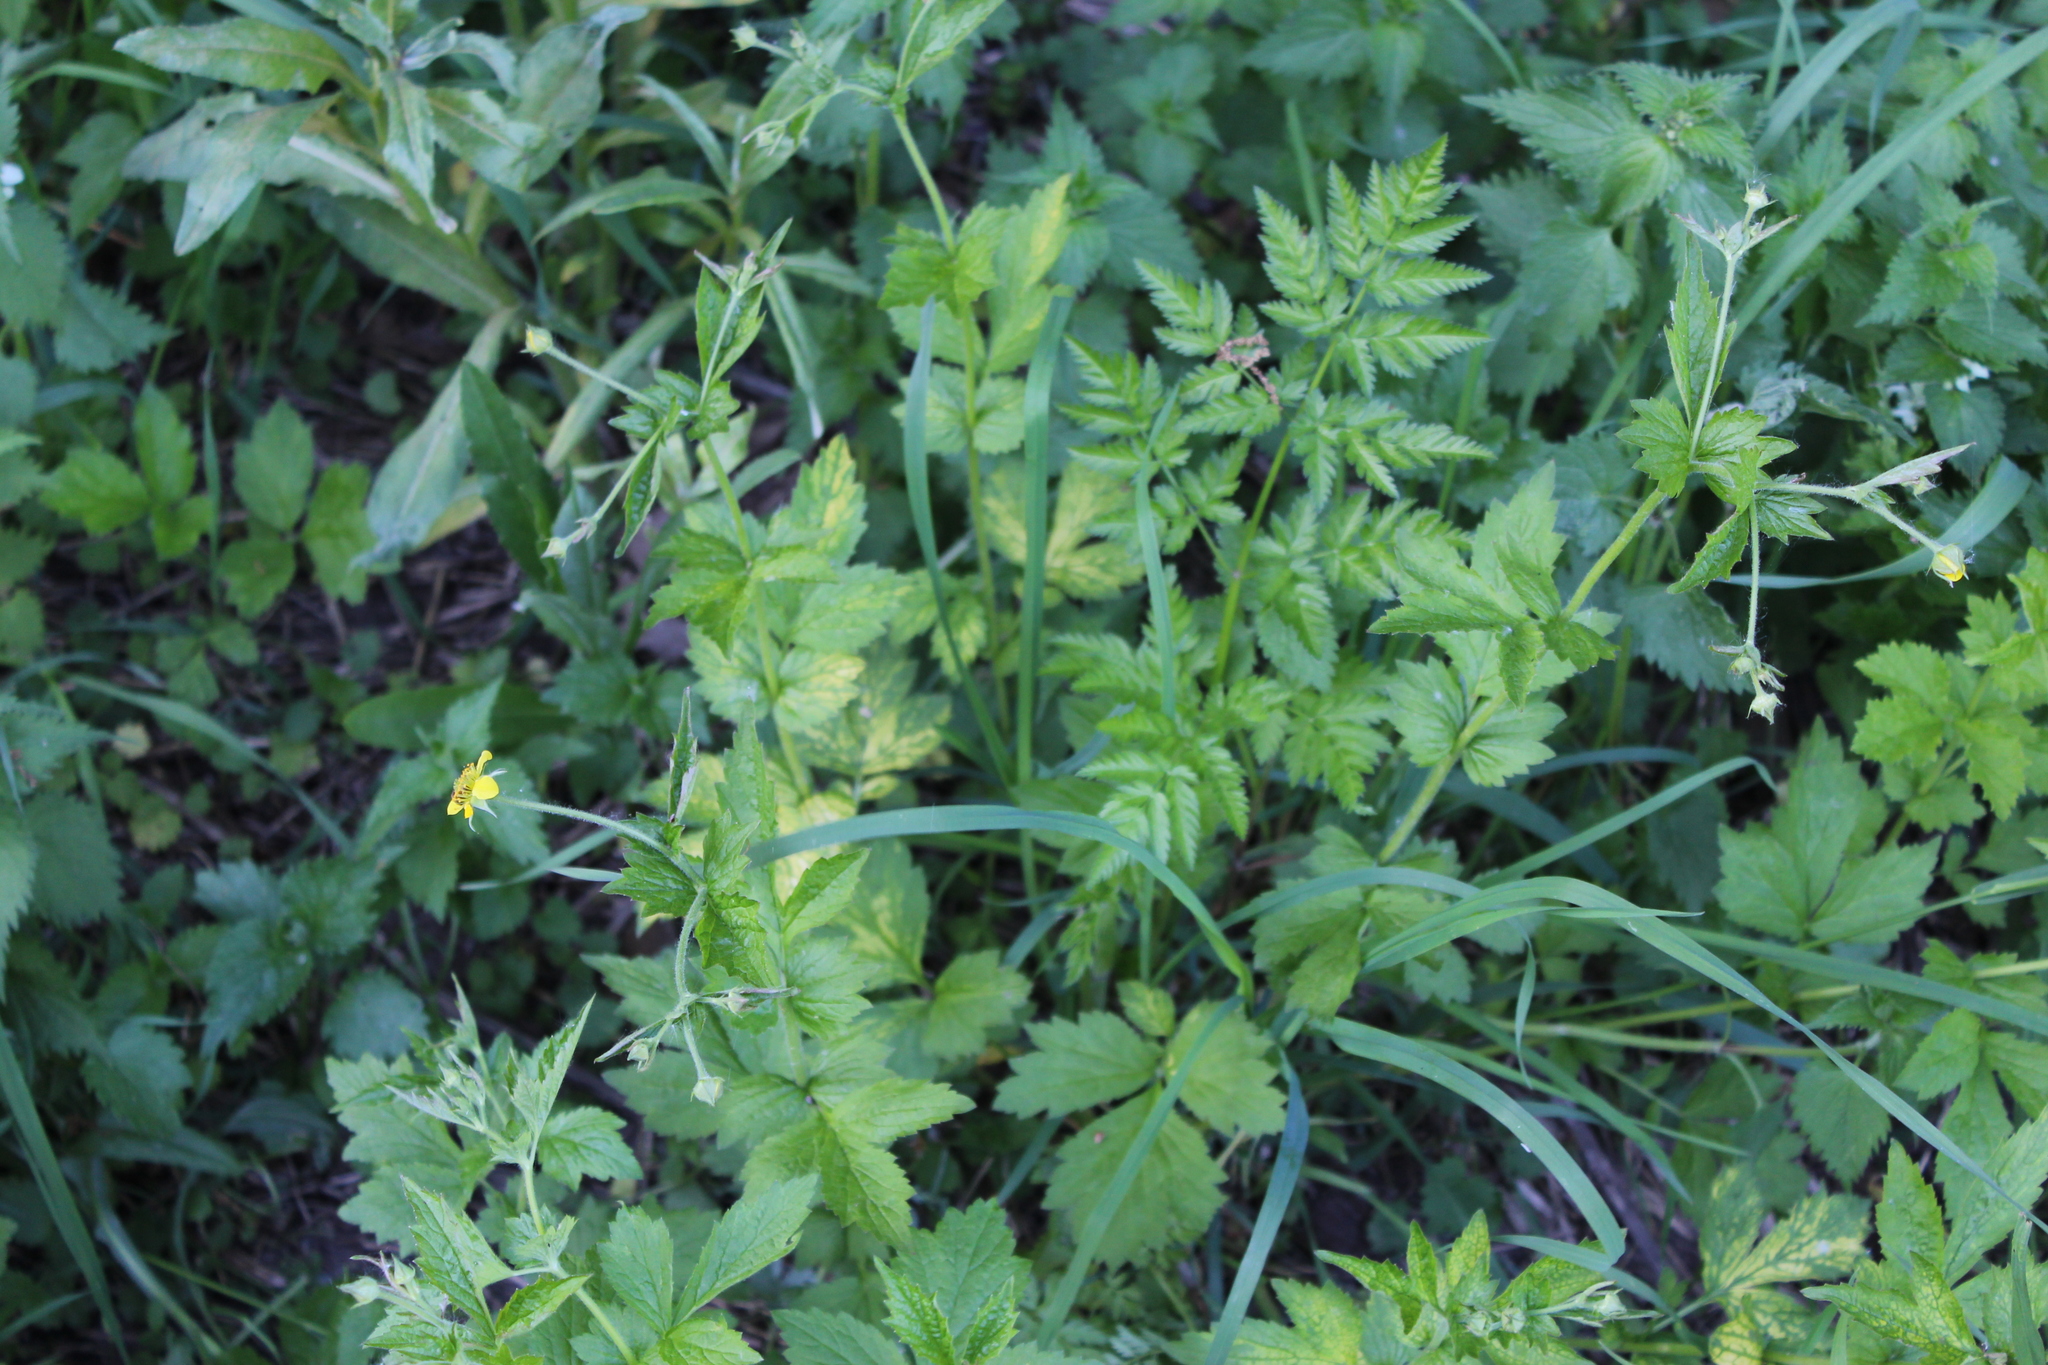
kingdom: Plantae
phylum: Tracheophyta
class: Magnoliopsida
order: Rosales
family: Rosaceae
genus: Geum
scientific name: Geum urbanum
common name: Wood avens
